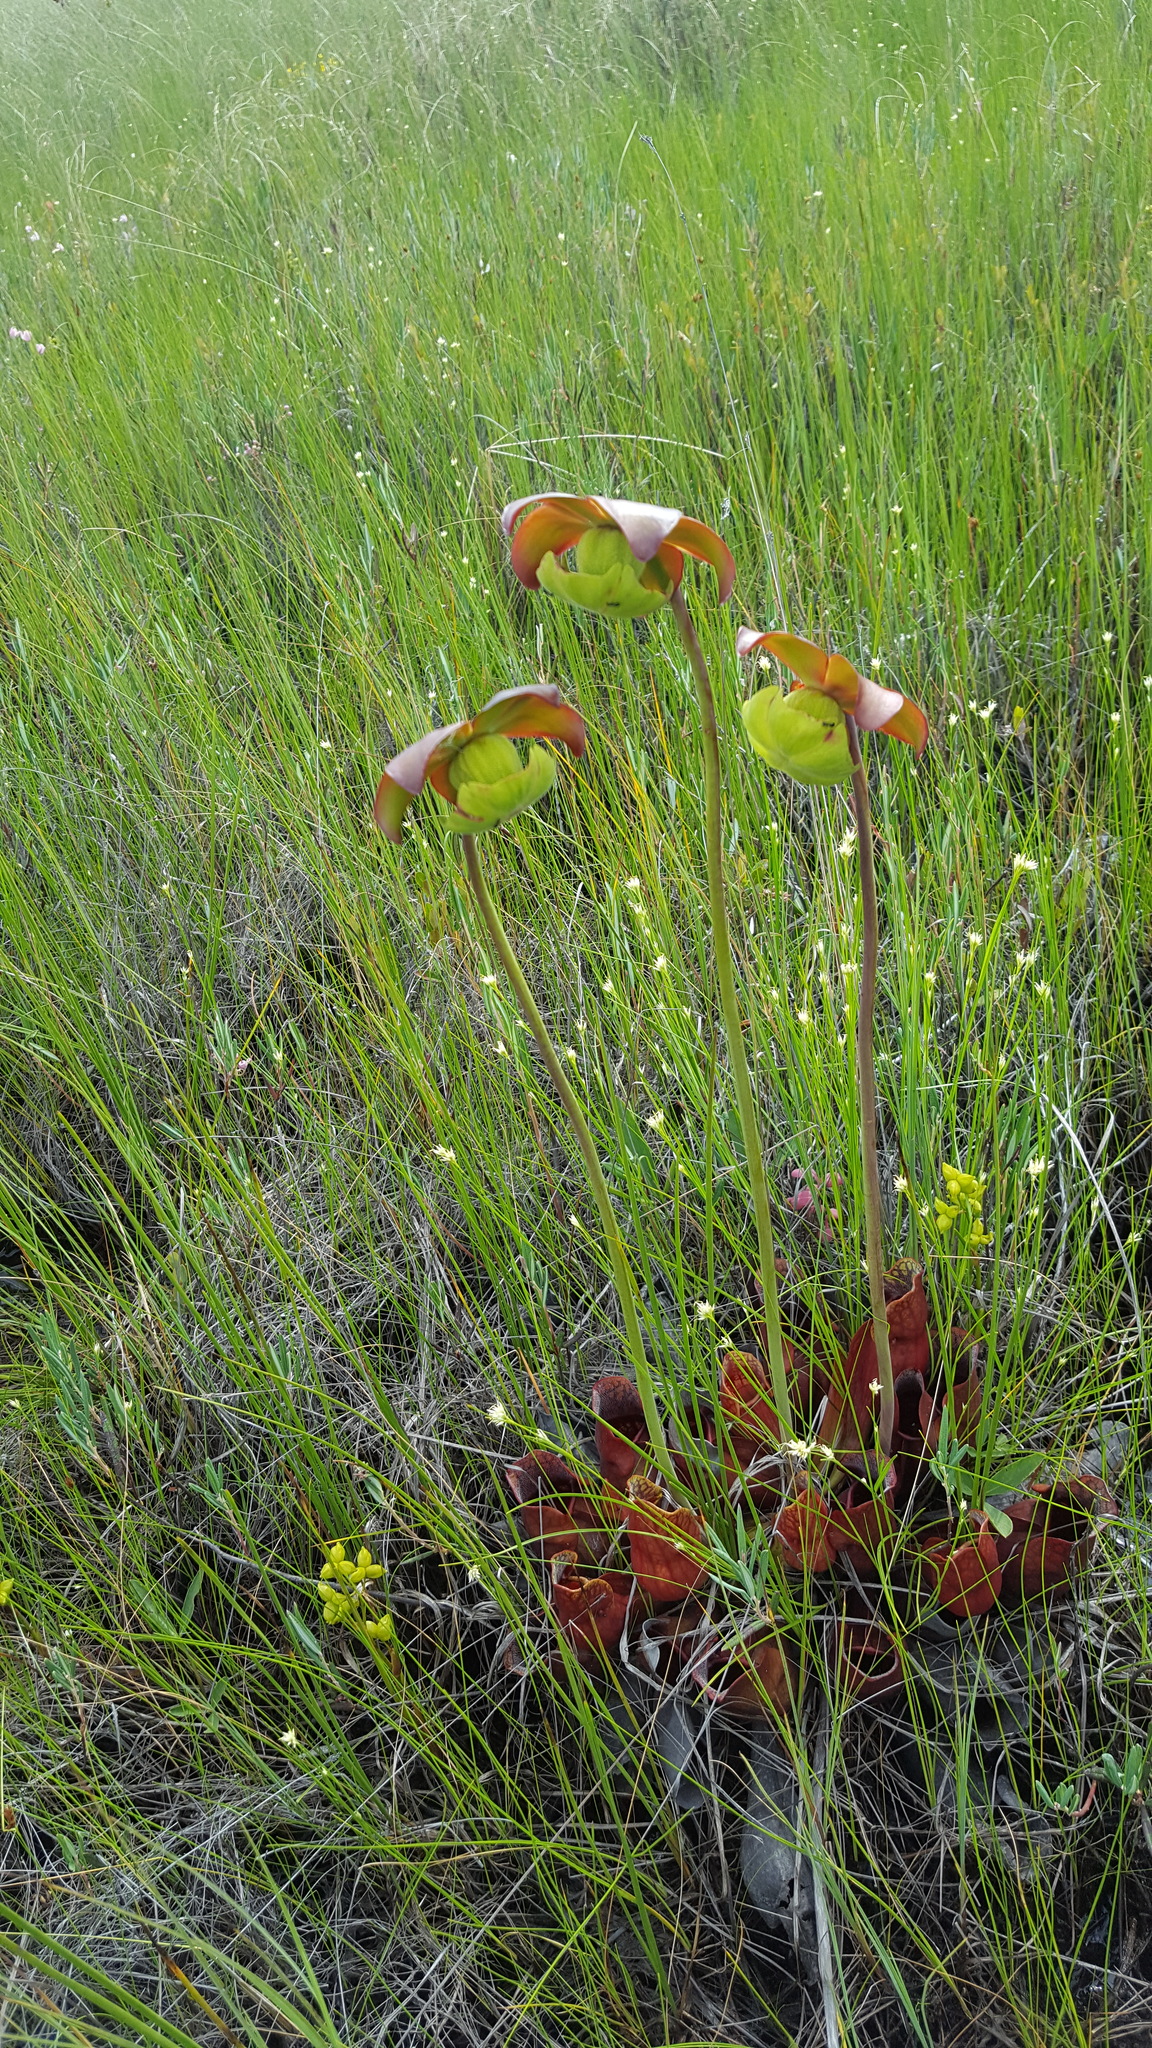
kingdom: Plantae
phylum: Tracheophyta
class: Magnoliopsida
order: Ericales
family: Sarraceniaceae
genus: Sarracenia
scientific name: Sarracenia purpurea
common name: Pitcherplant
